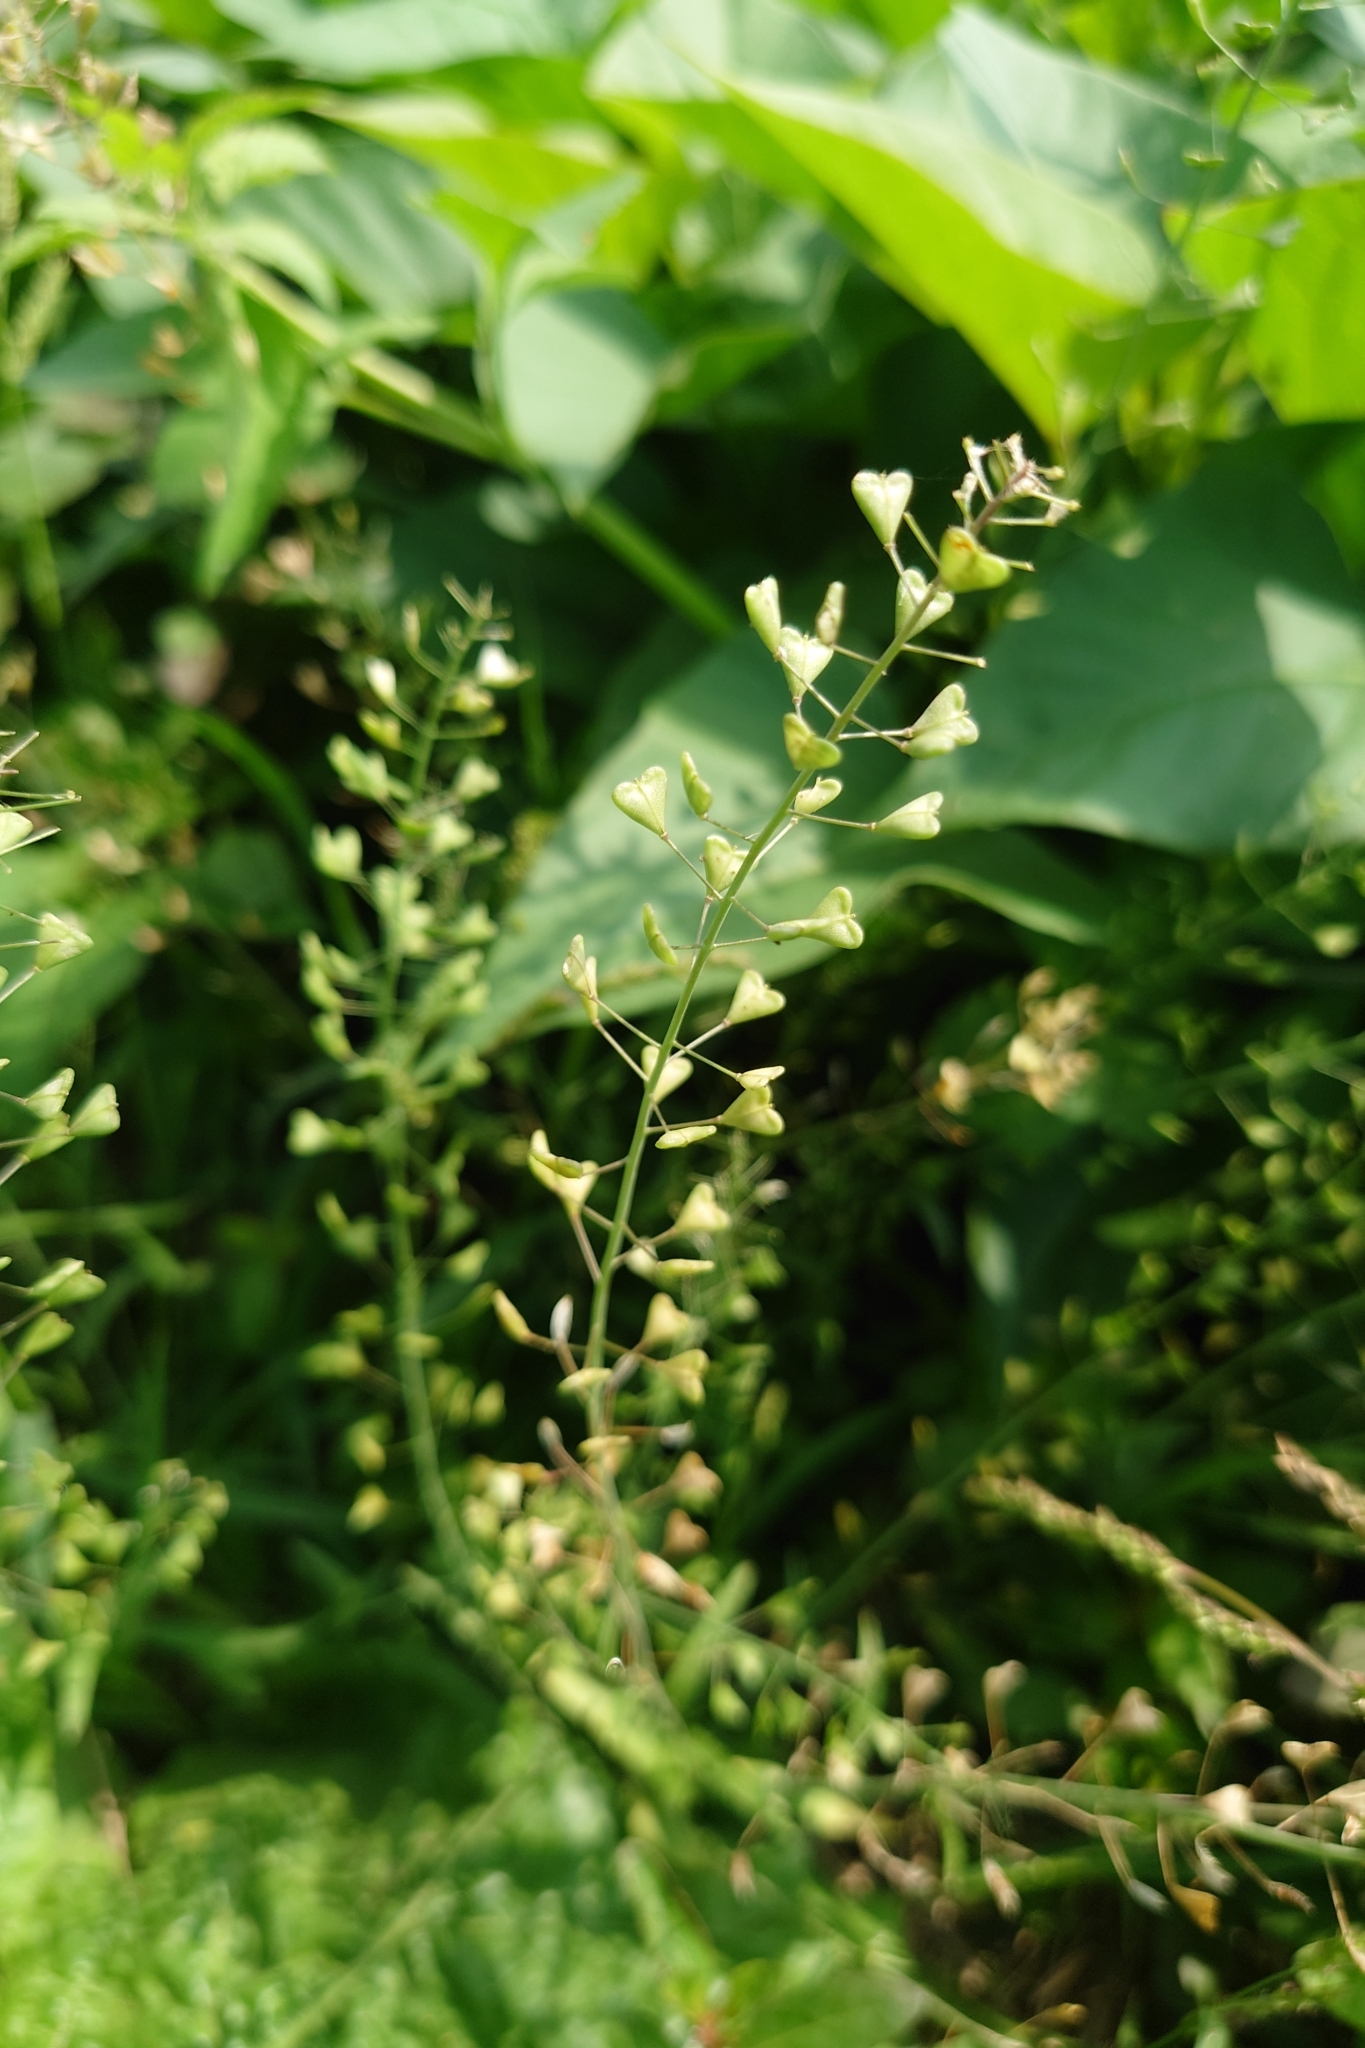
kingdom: Plantae
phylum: Tracheophyta
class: Magnoliopsida
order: Brassicales
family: Brassicaceae
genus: Capsella
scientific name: Capsella bursa-pastoris
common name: Shepherd's purse
